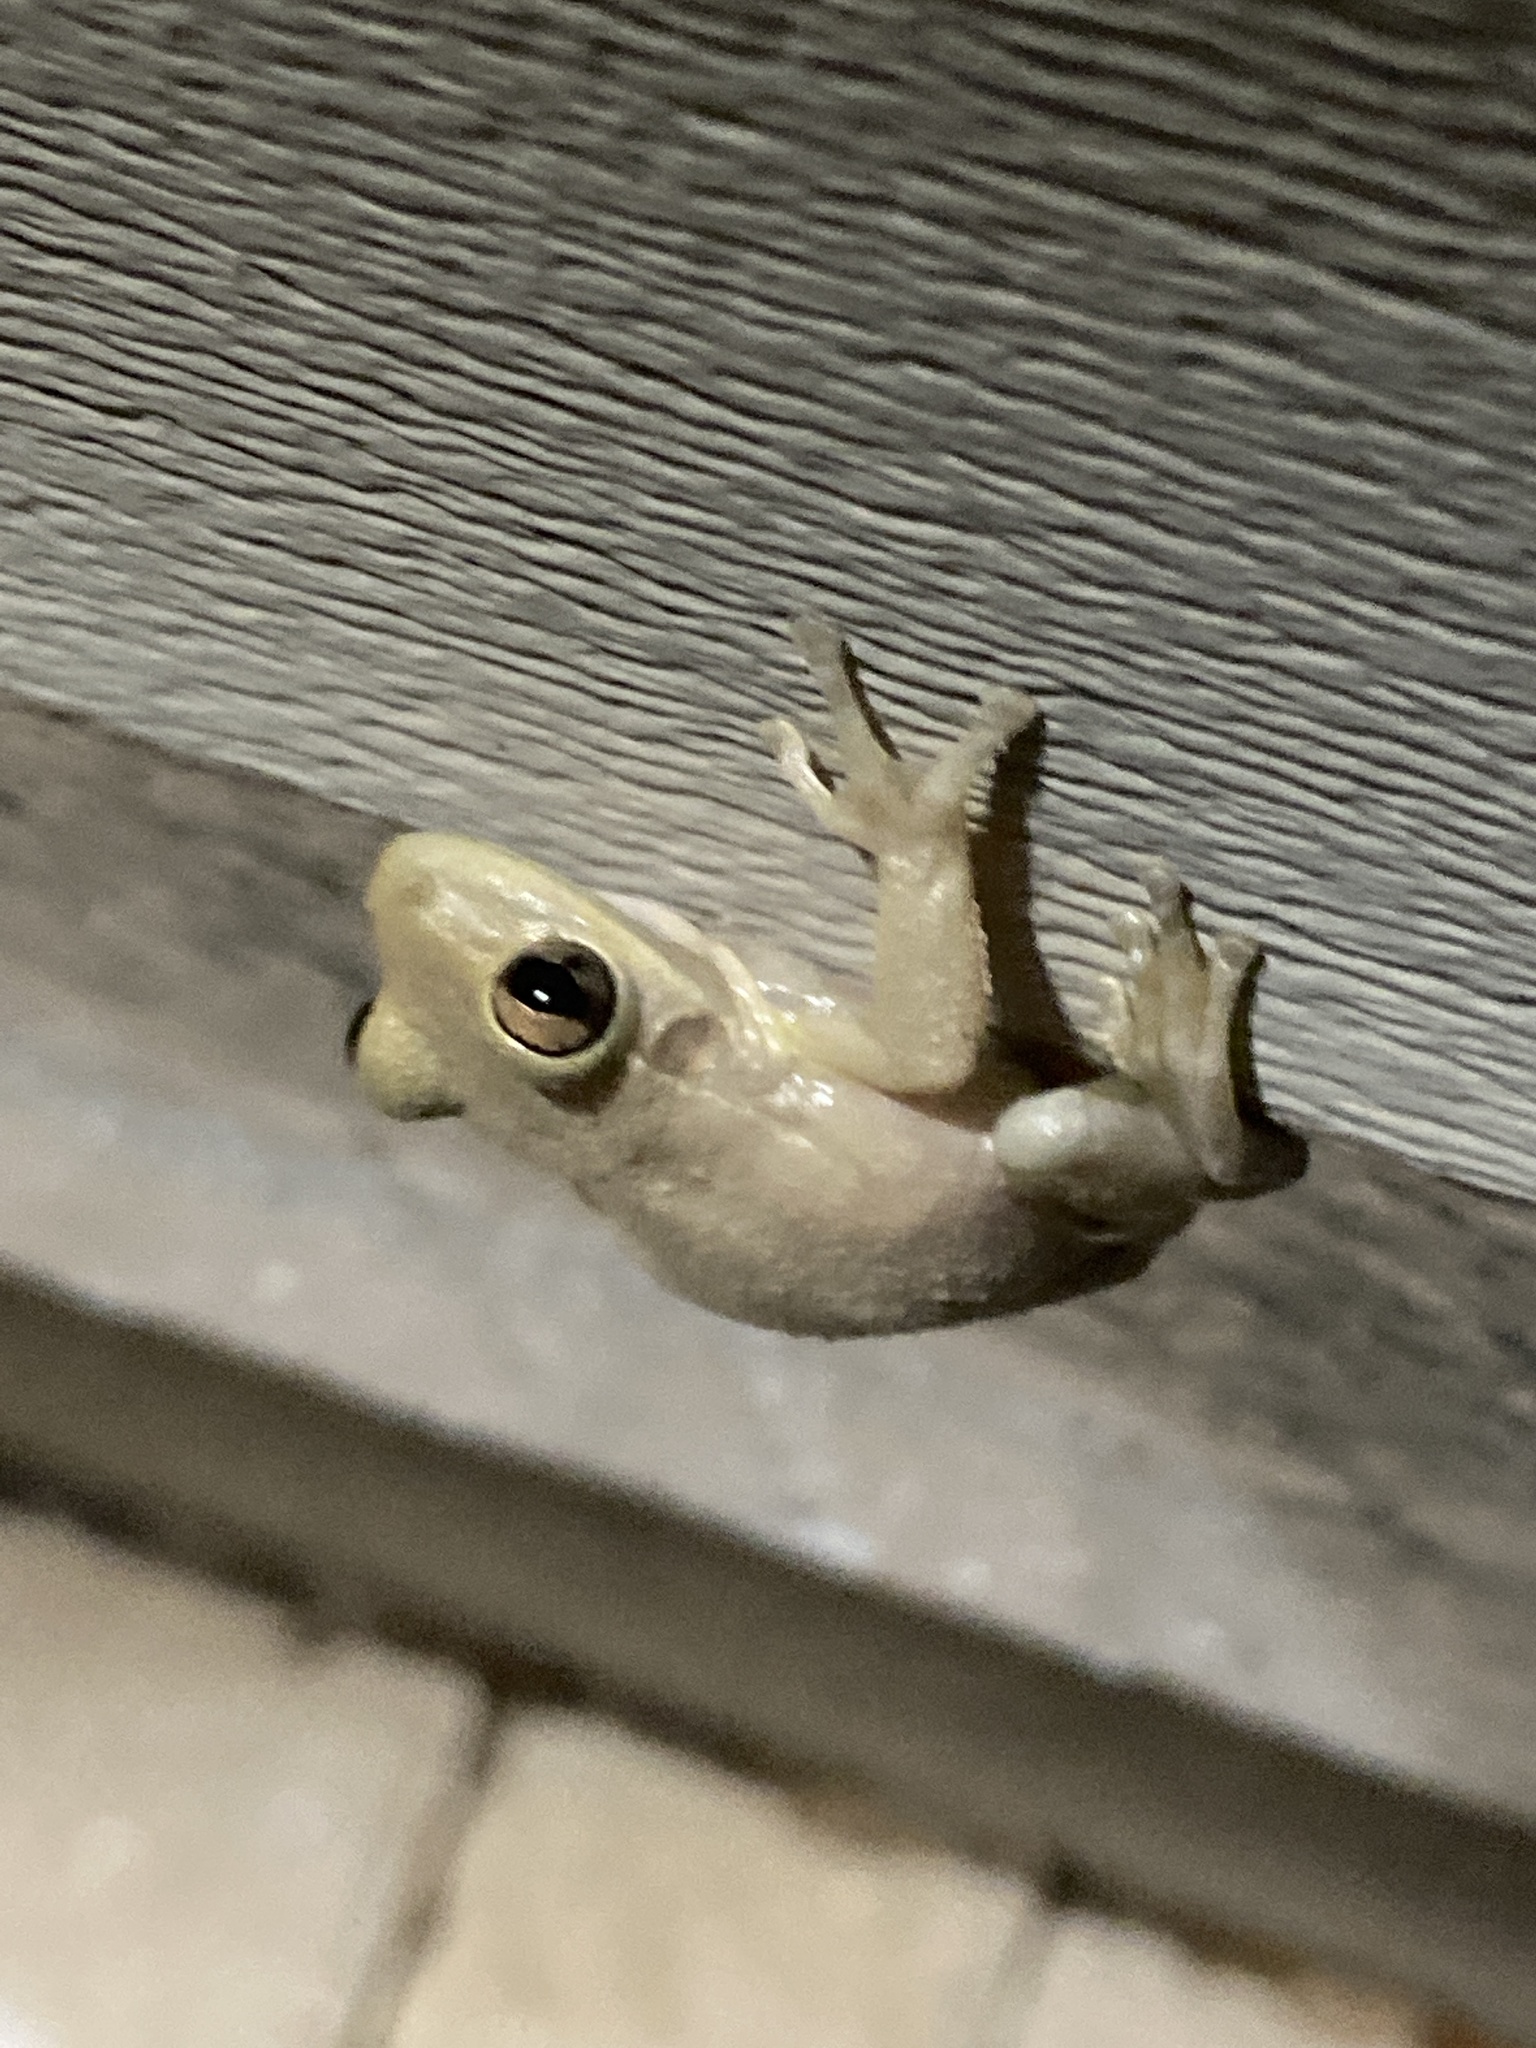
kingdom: Animalia
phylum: Chordata
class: Amphibia
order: Anura
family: Hylidae
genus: Osteopilus
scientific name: Osteopilus septentrionalis
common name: Cuban treefrog
